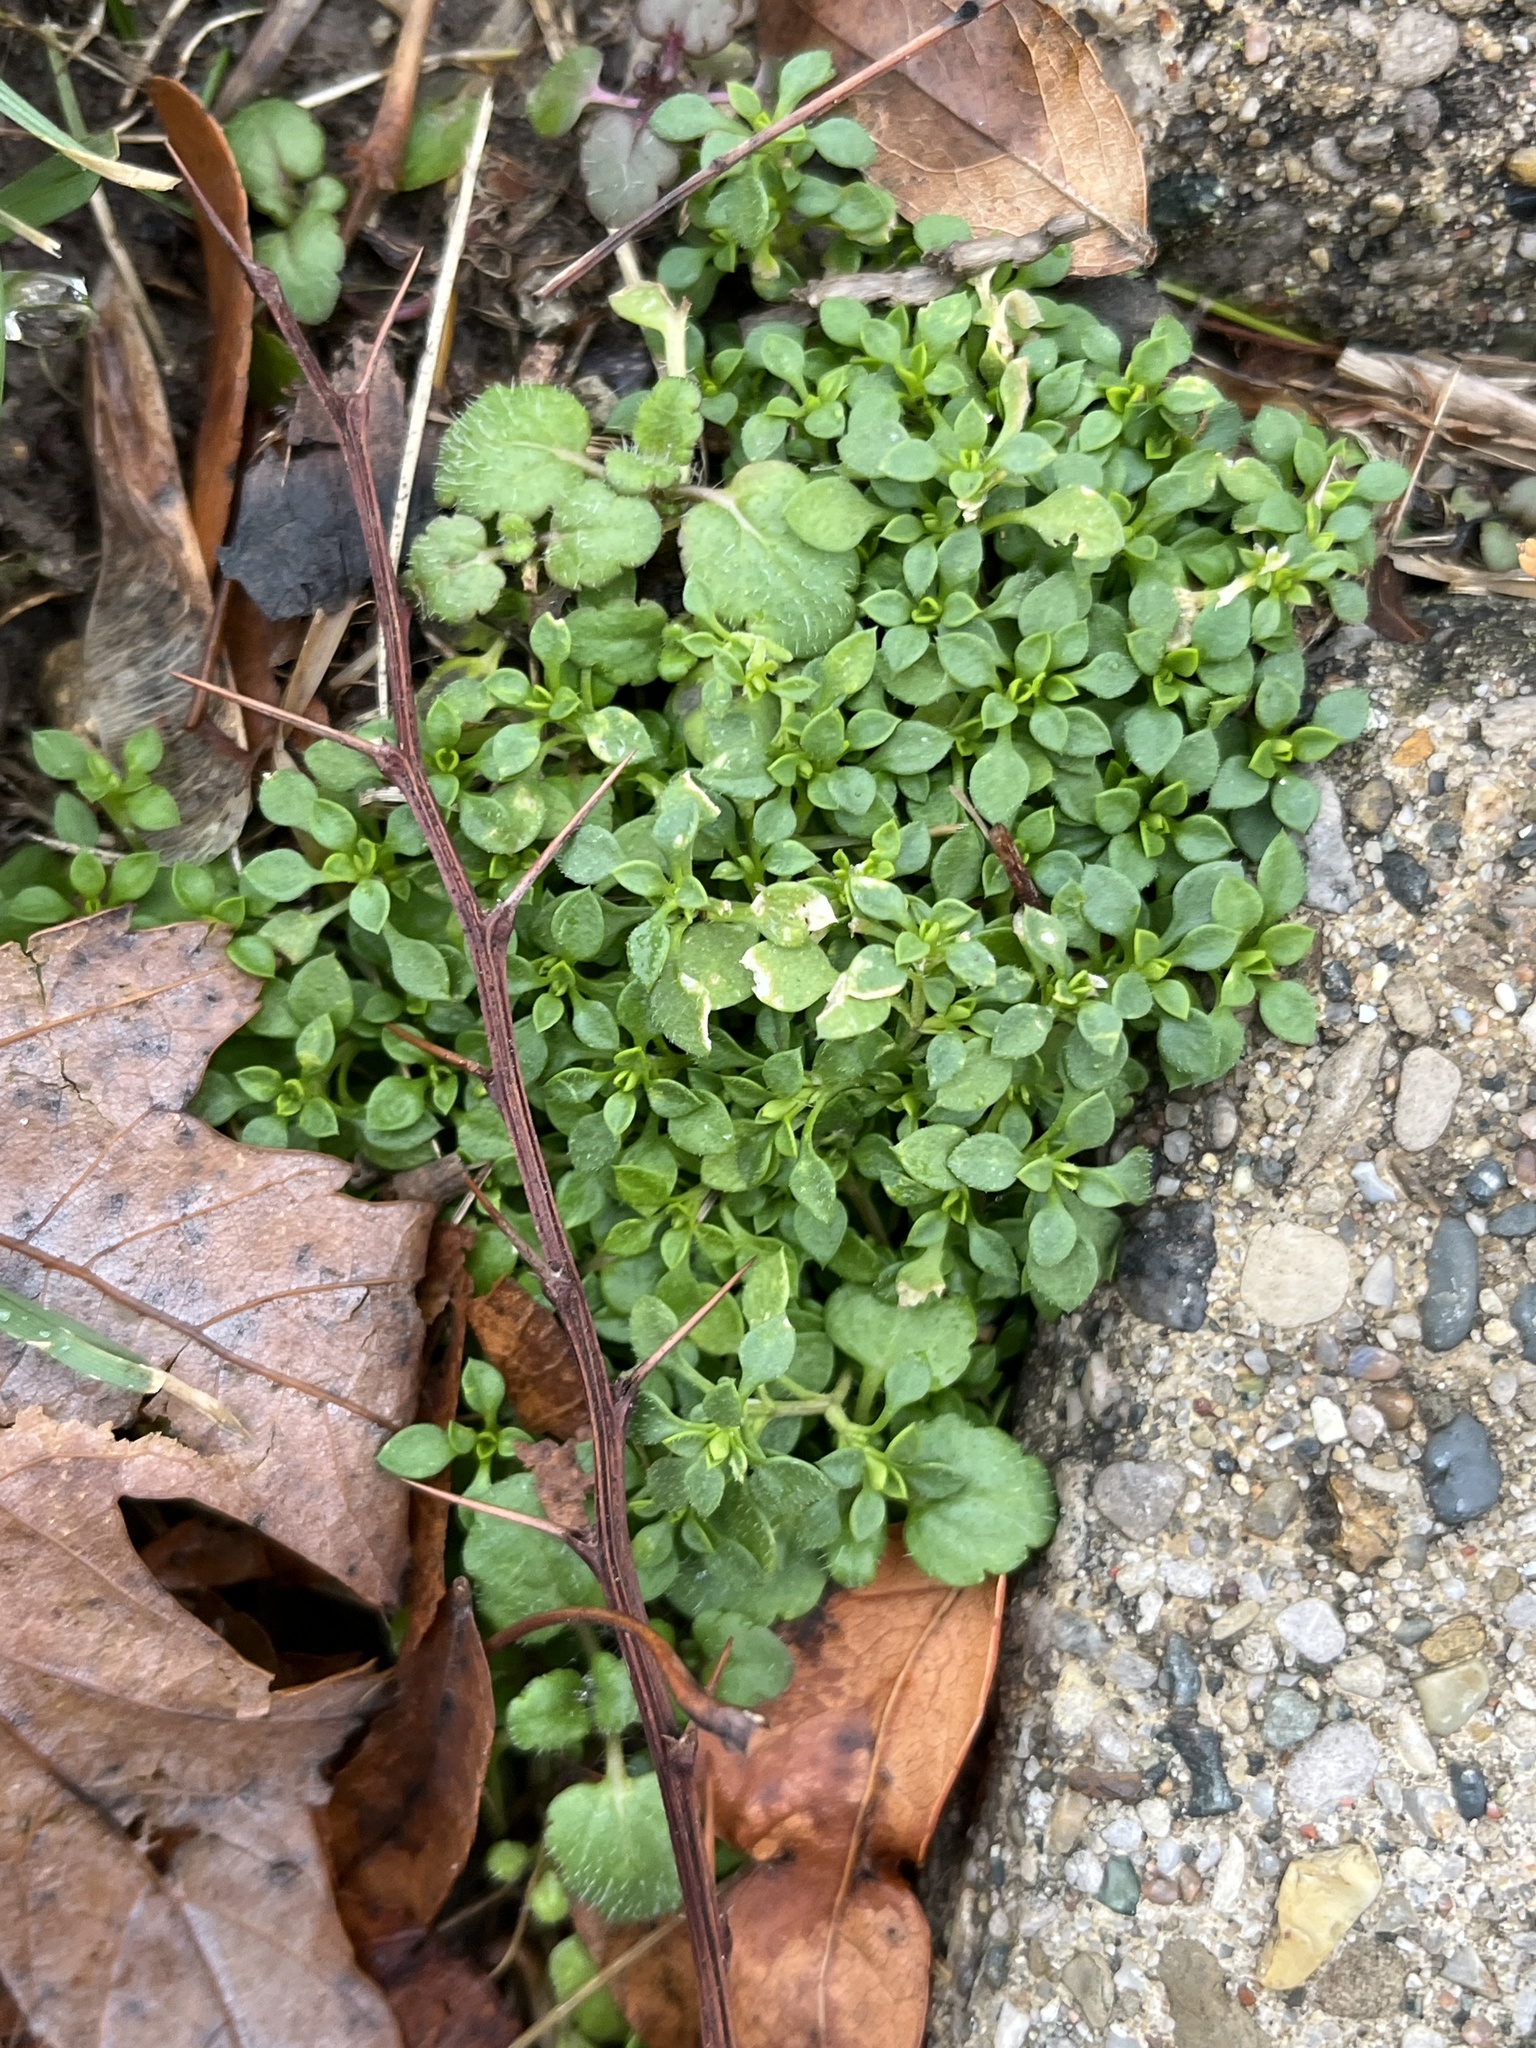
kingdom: Plantae
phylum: Tracheophyta
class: Magnoliopsida
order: Caryophyllales
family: Caryophyllaceae
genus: Stellaria
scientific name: Stellaria media
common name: Common chickweed
